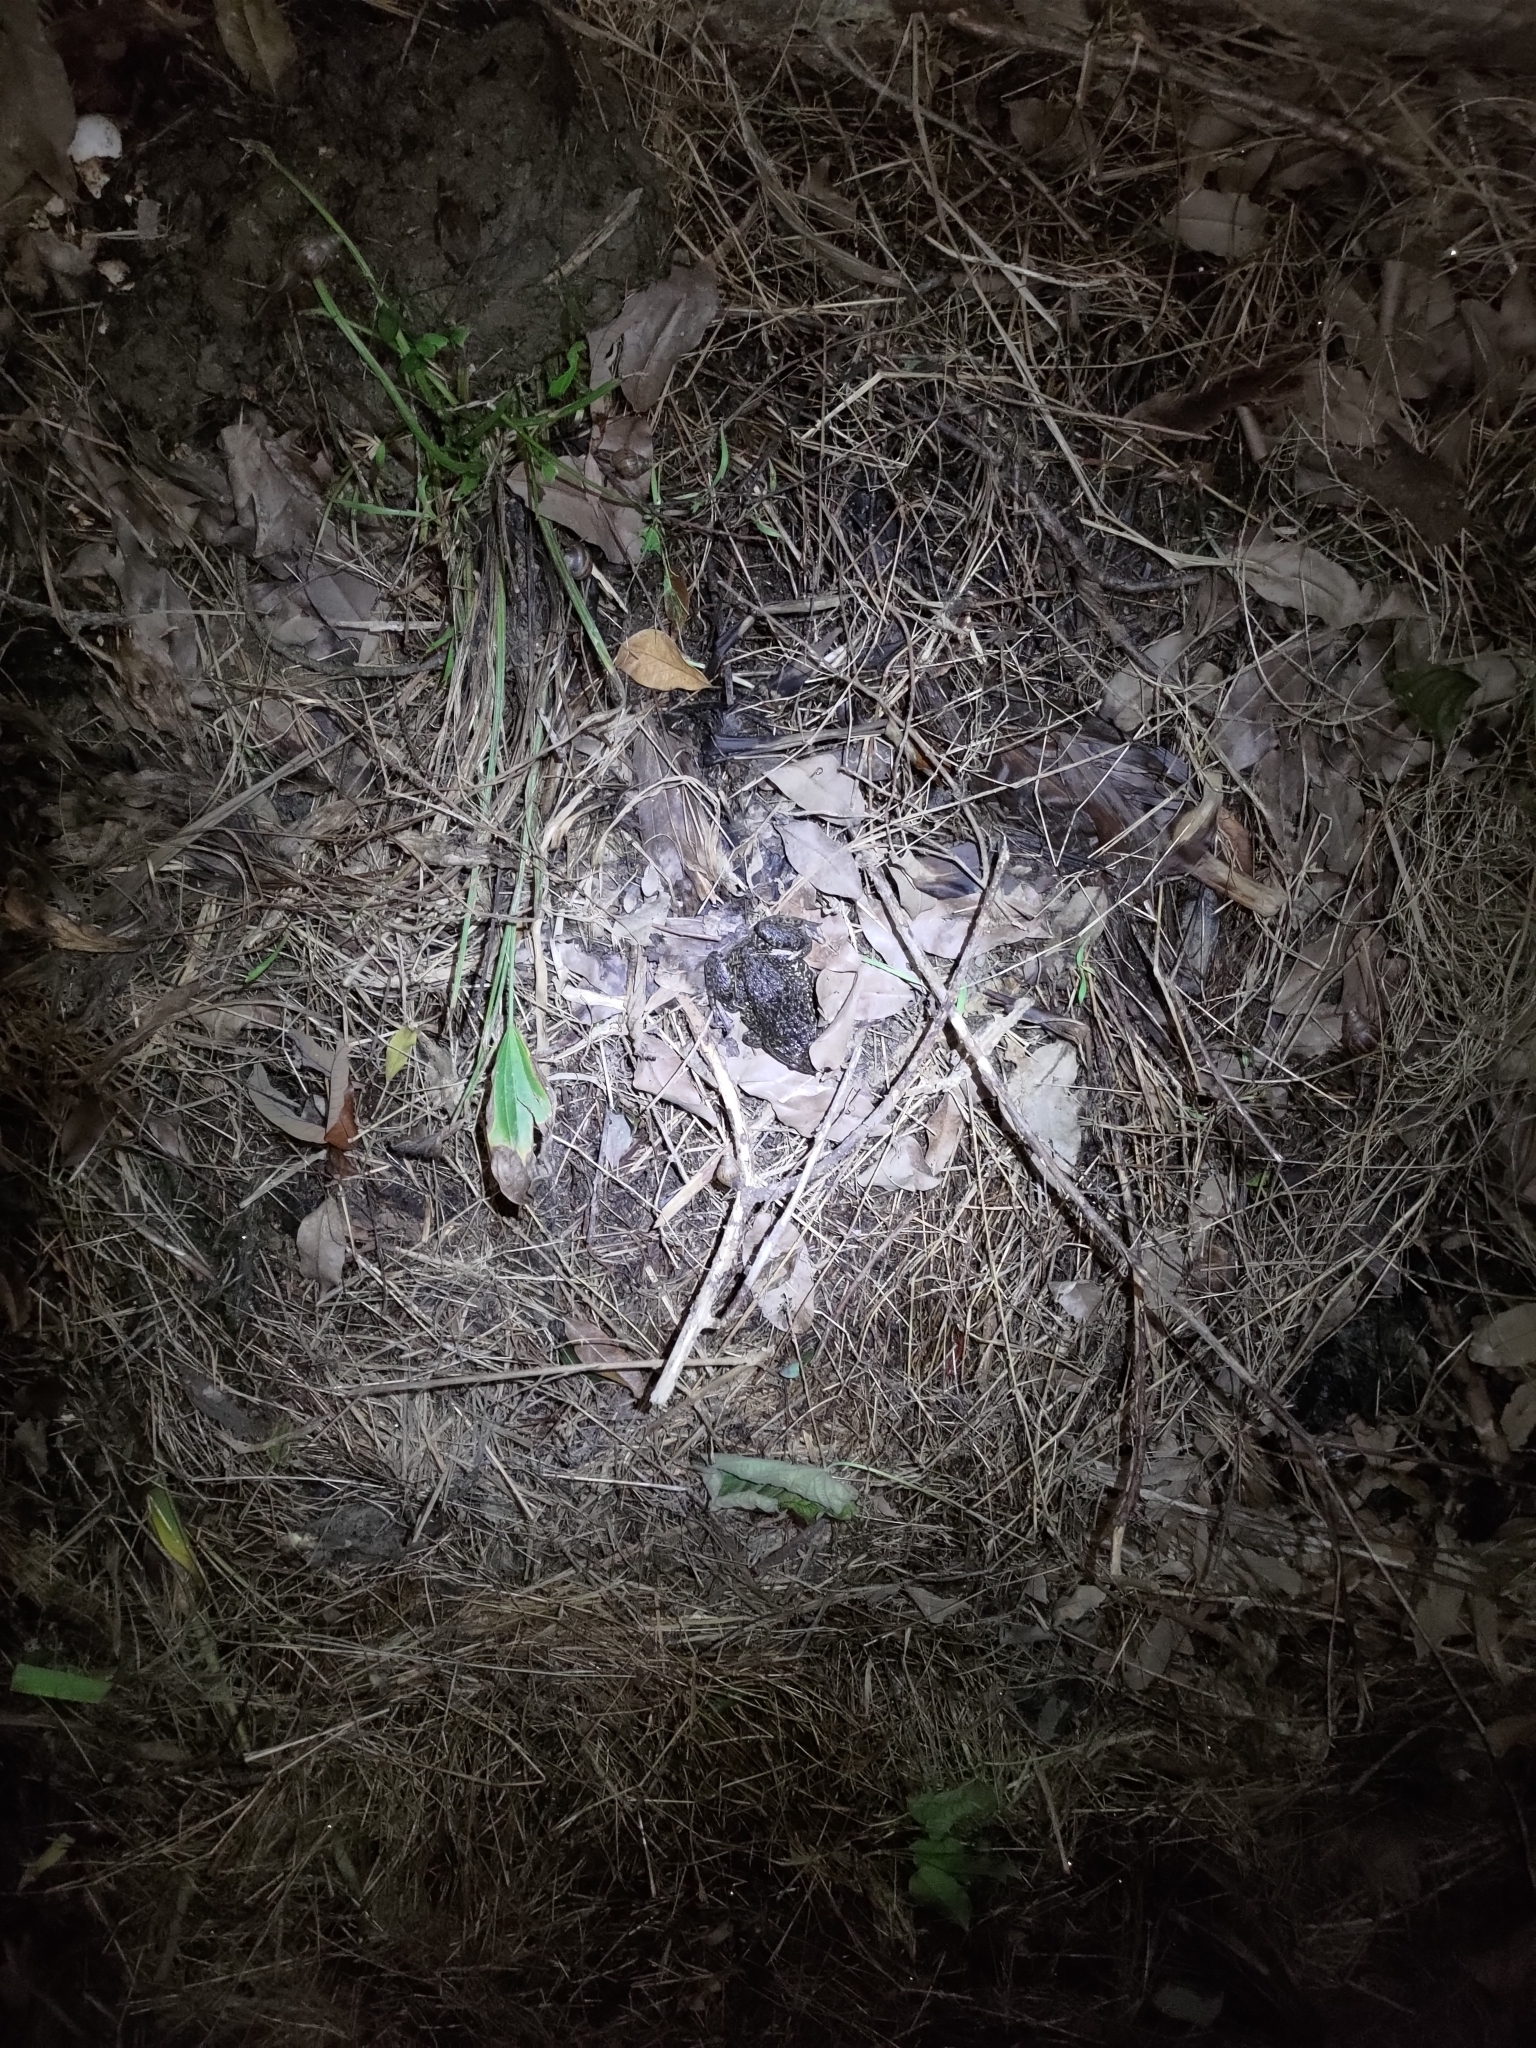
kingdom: Animalia
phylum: Chordata
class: Amphibia
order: Anura
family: Dicroglossidae
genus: Hoplobatrachus
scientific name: Hoplobatrachus rugulosus
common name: Chinese edible frog
